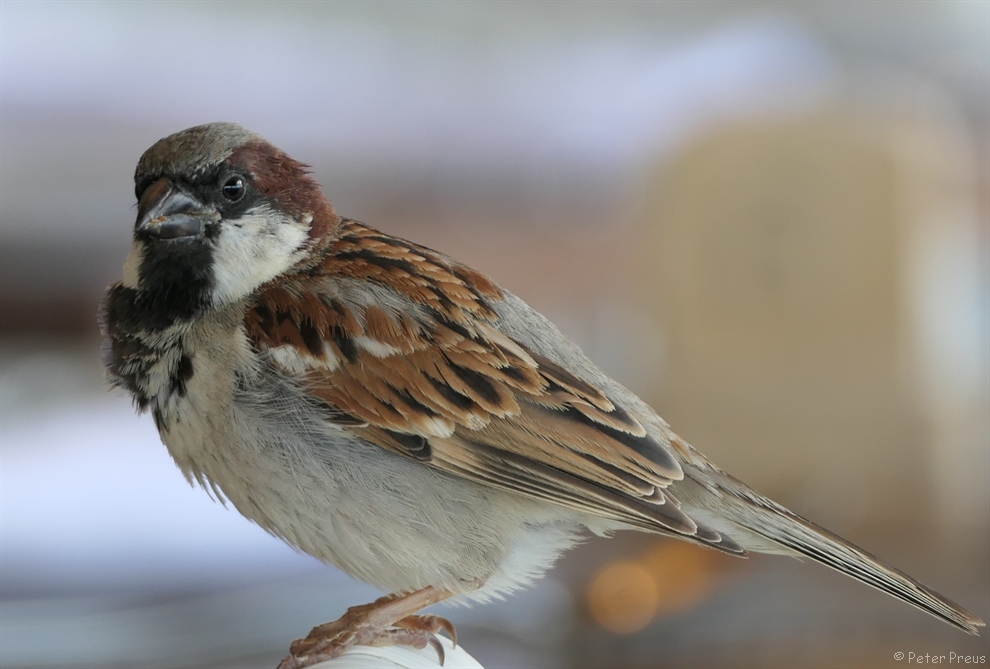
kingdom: Animalia
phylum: Chordata
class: Aves
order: Passeriformes
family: Passeridae
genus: Passer
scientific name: Passer domesticus
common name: House sparrow
